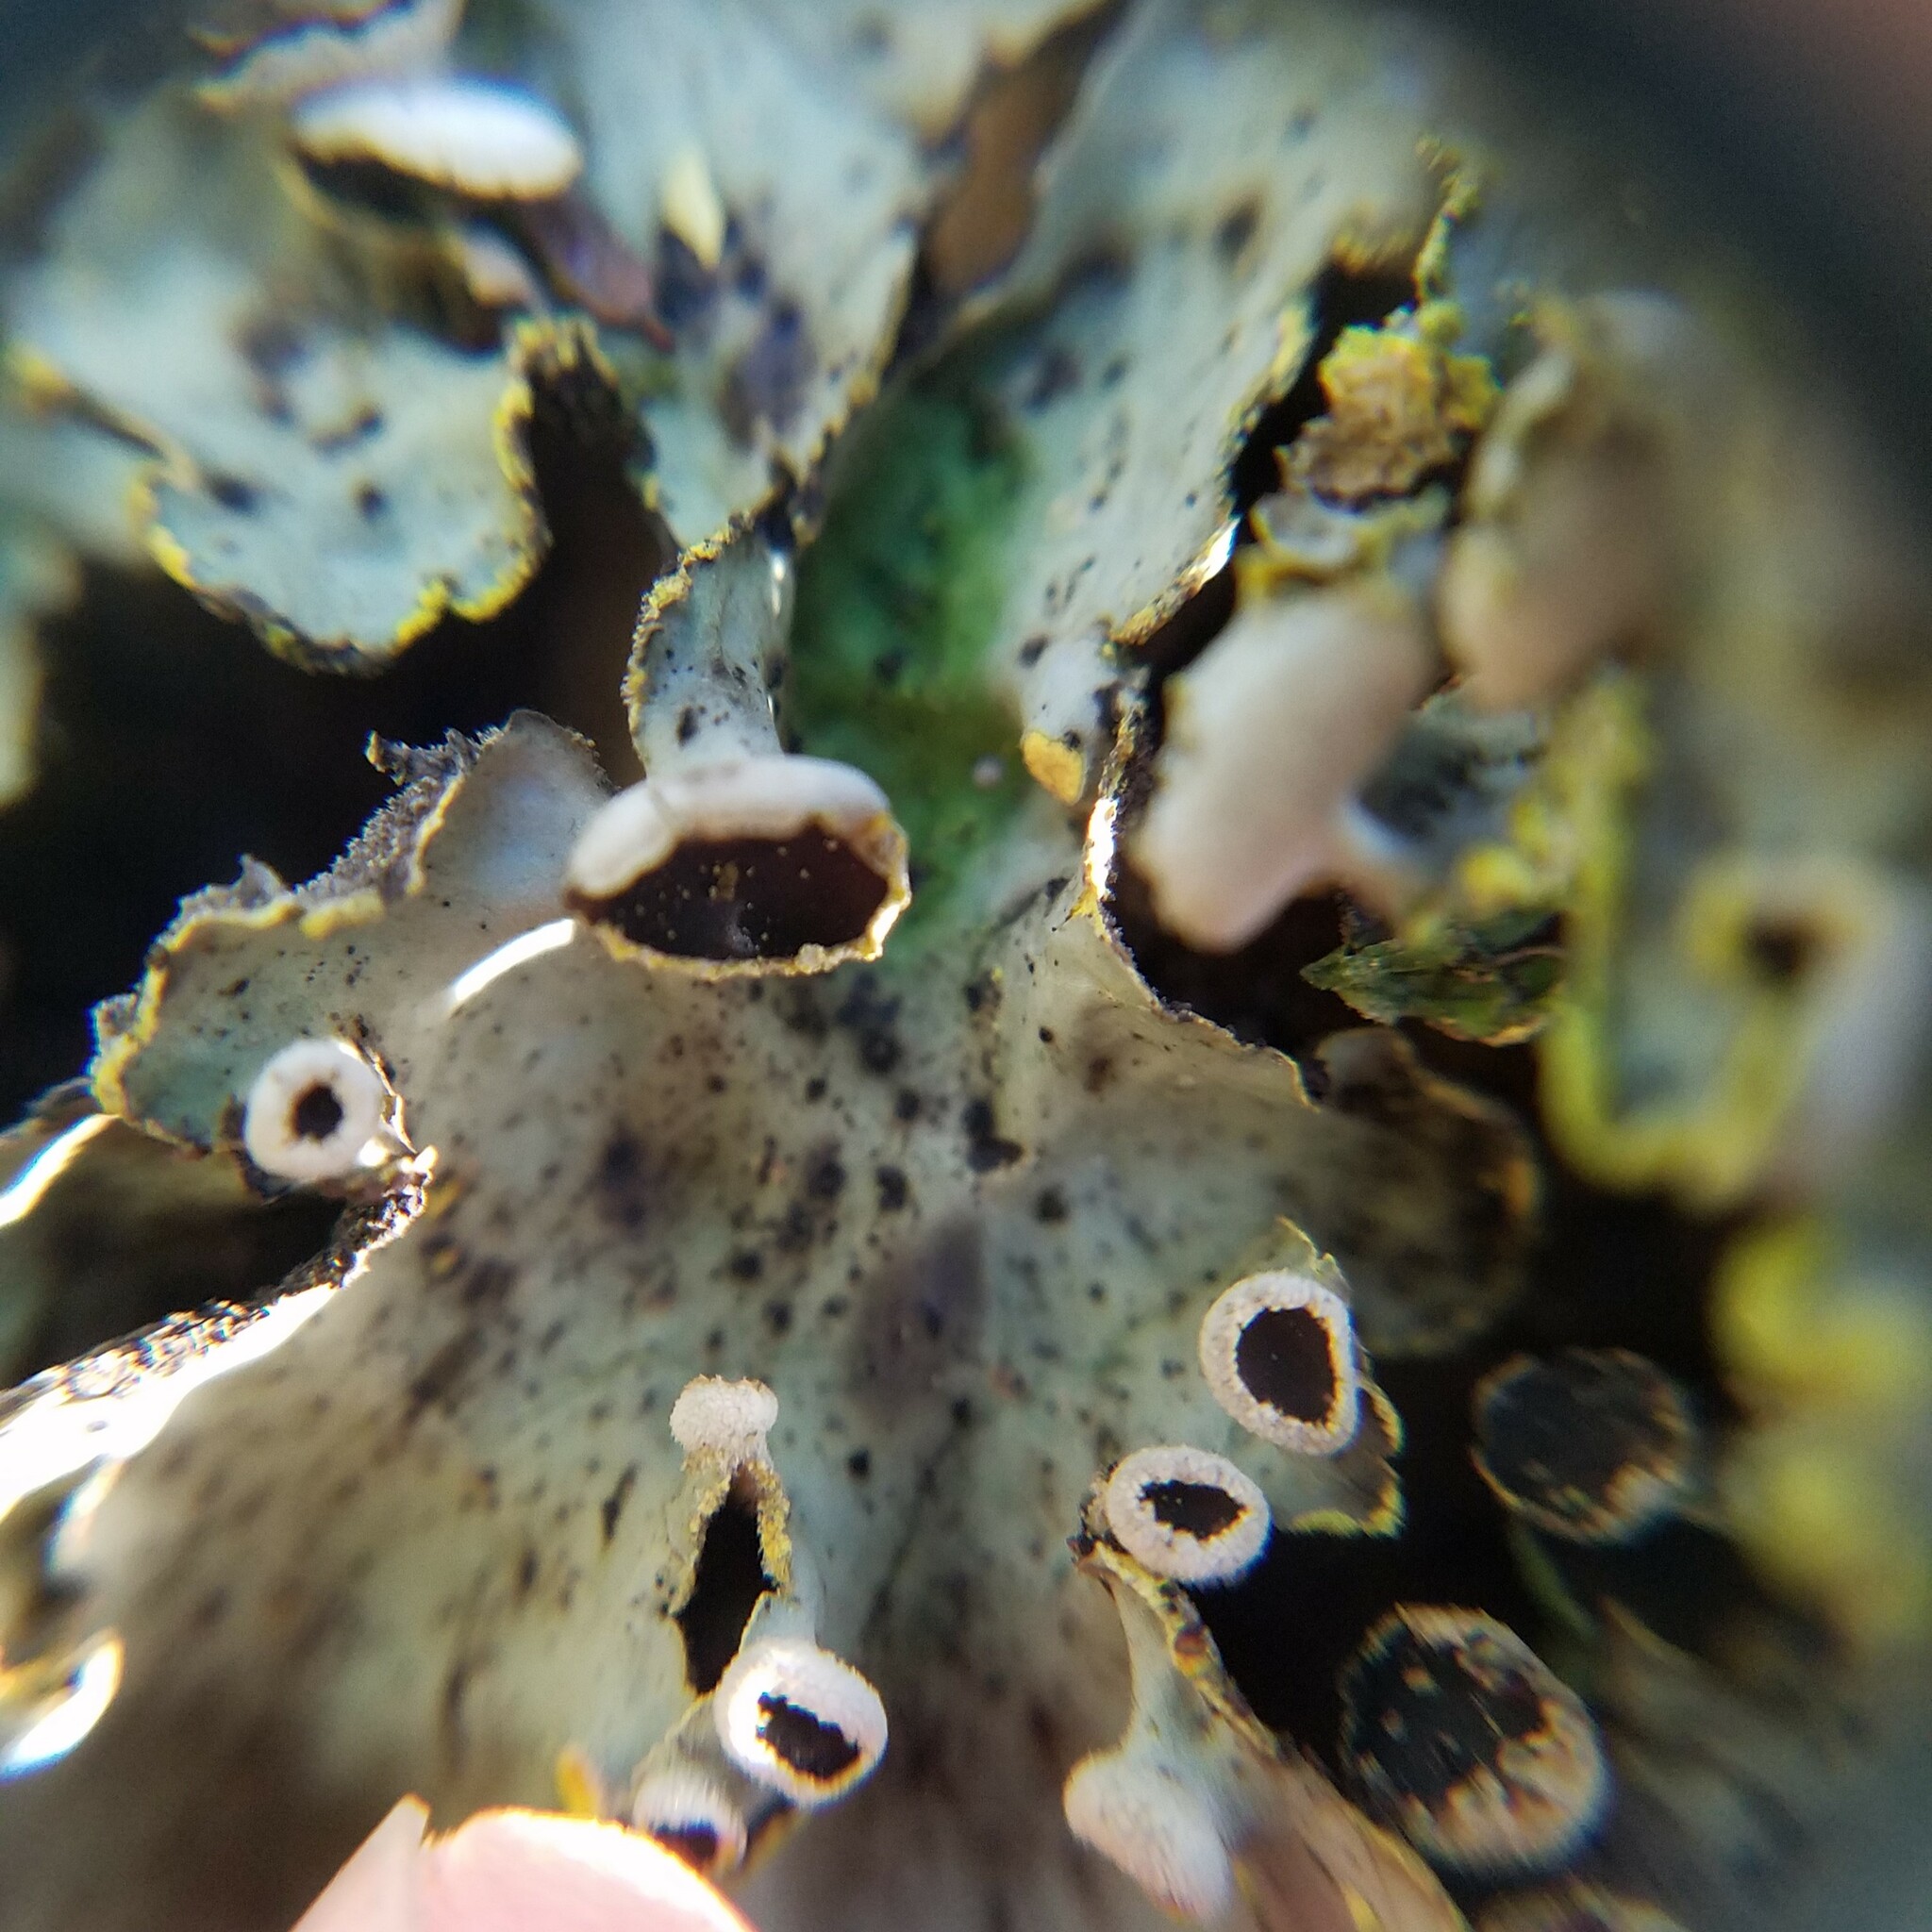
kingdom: Fungi
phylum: Ascomycota
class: Lecanoromycetes
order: Peltigerales
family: Lobariaceae
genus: Pseudocyphellaria
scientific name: Pseudocyphellaria aurata
